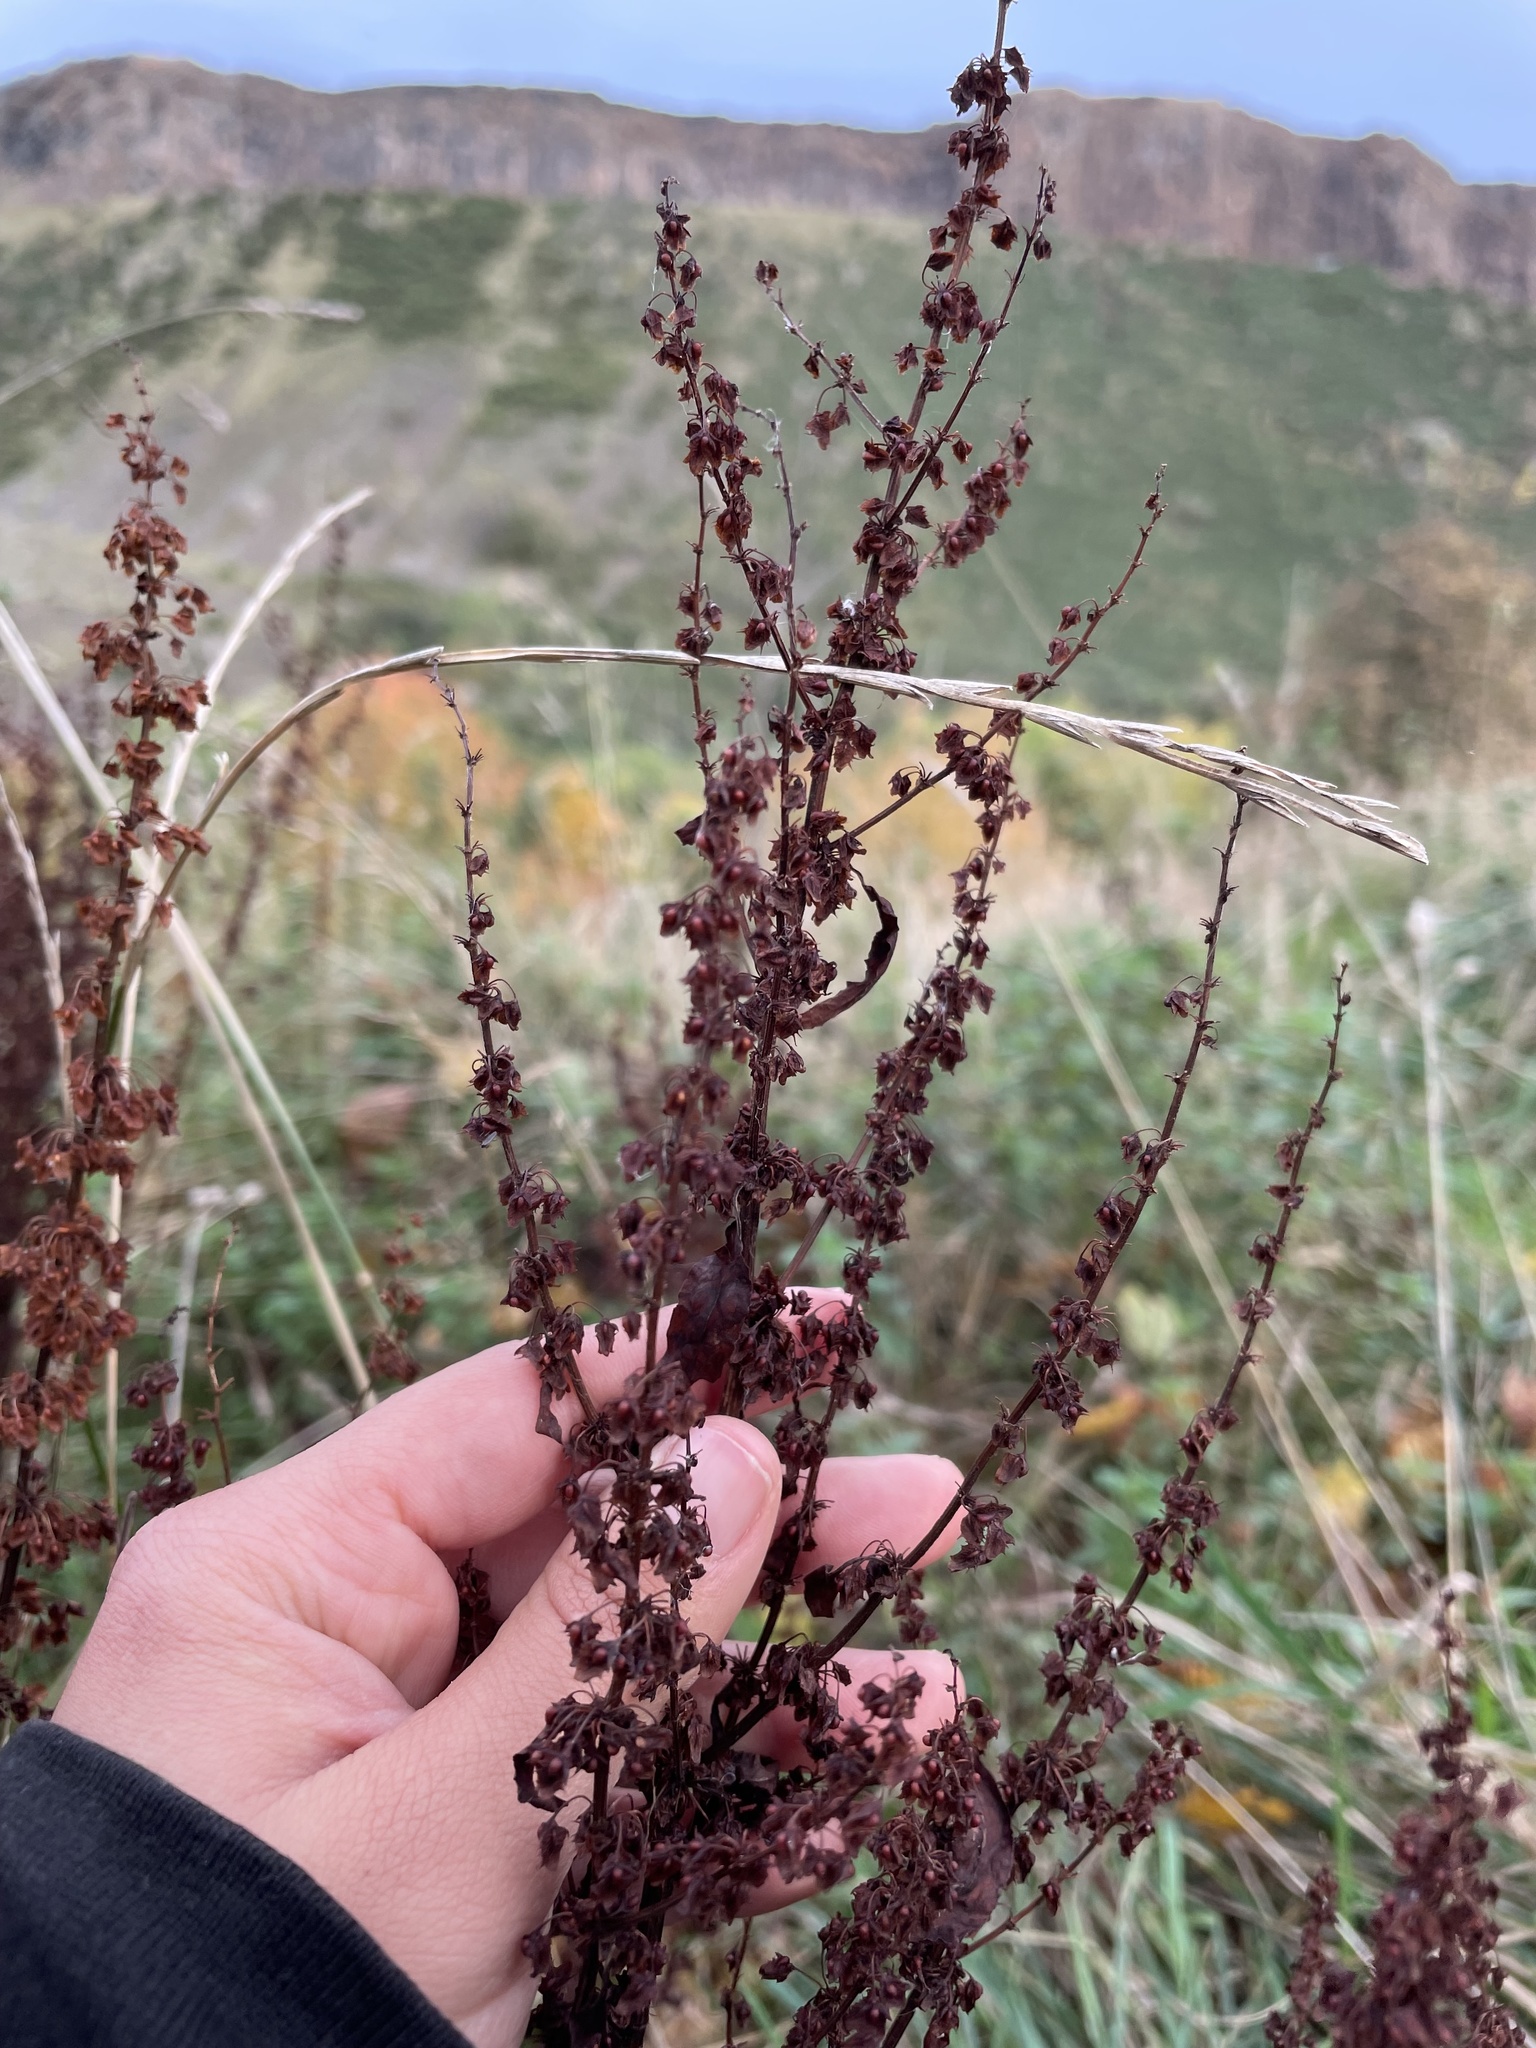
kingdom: Plantae
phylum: Tracheophyta
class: Magnoliopsida
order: Caryophyllales
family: Polygonaceae
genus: Rumex
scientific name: Rumex obtusifolius
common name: Bitter dock
